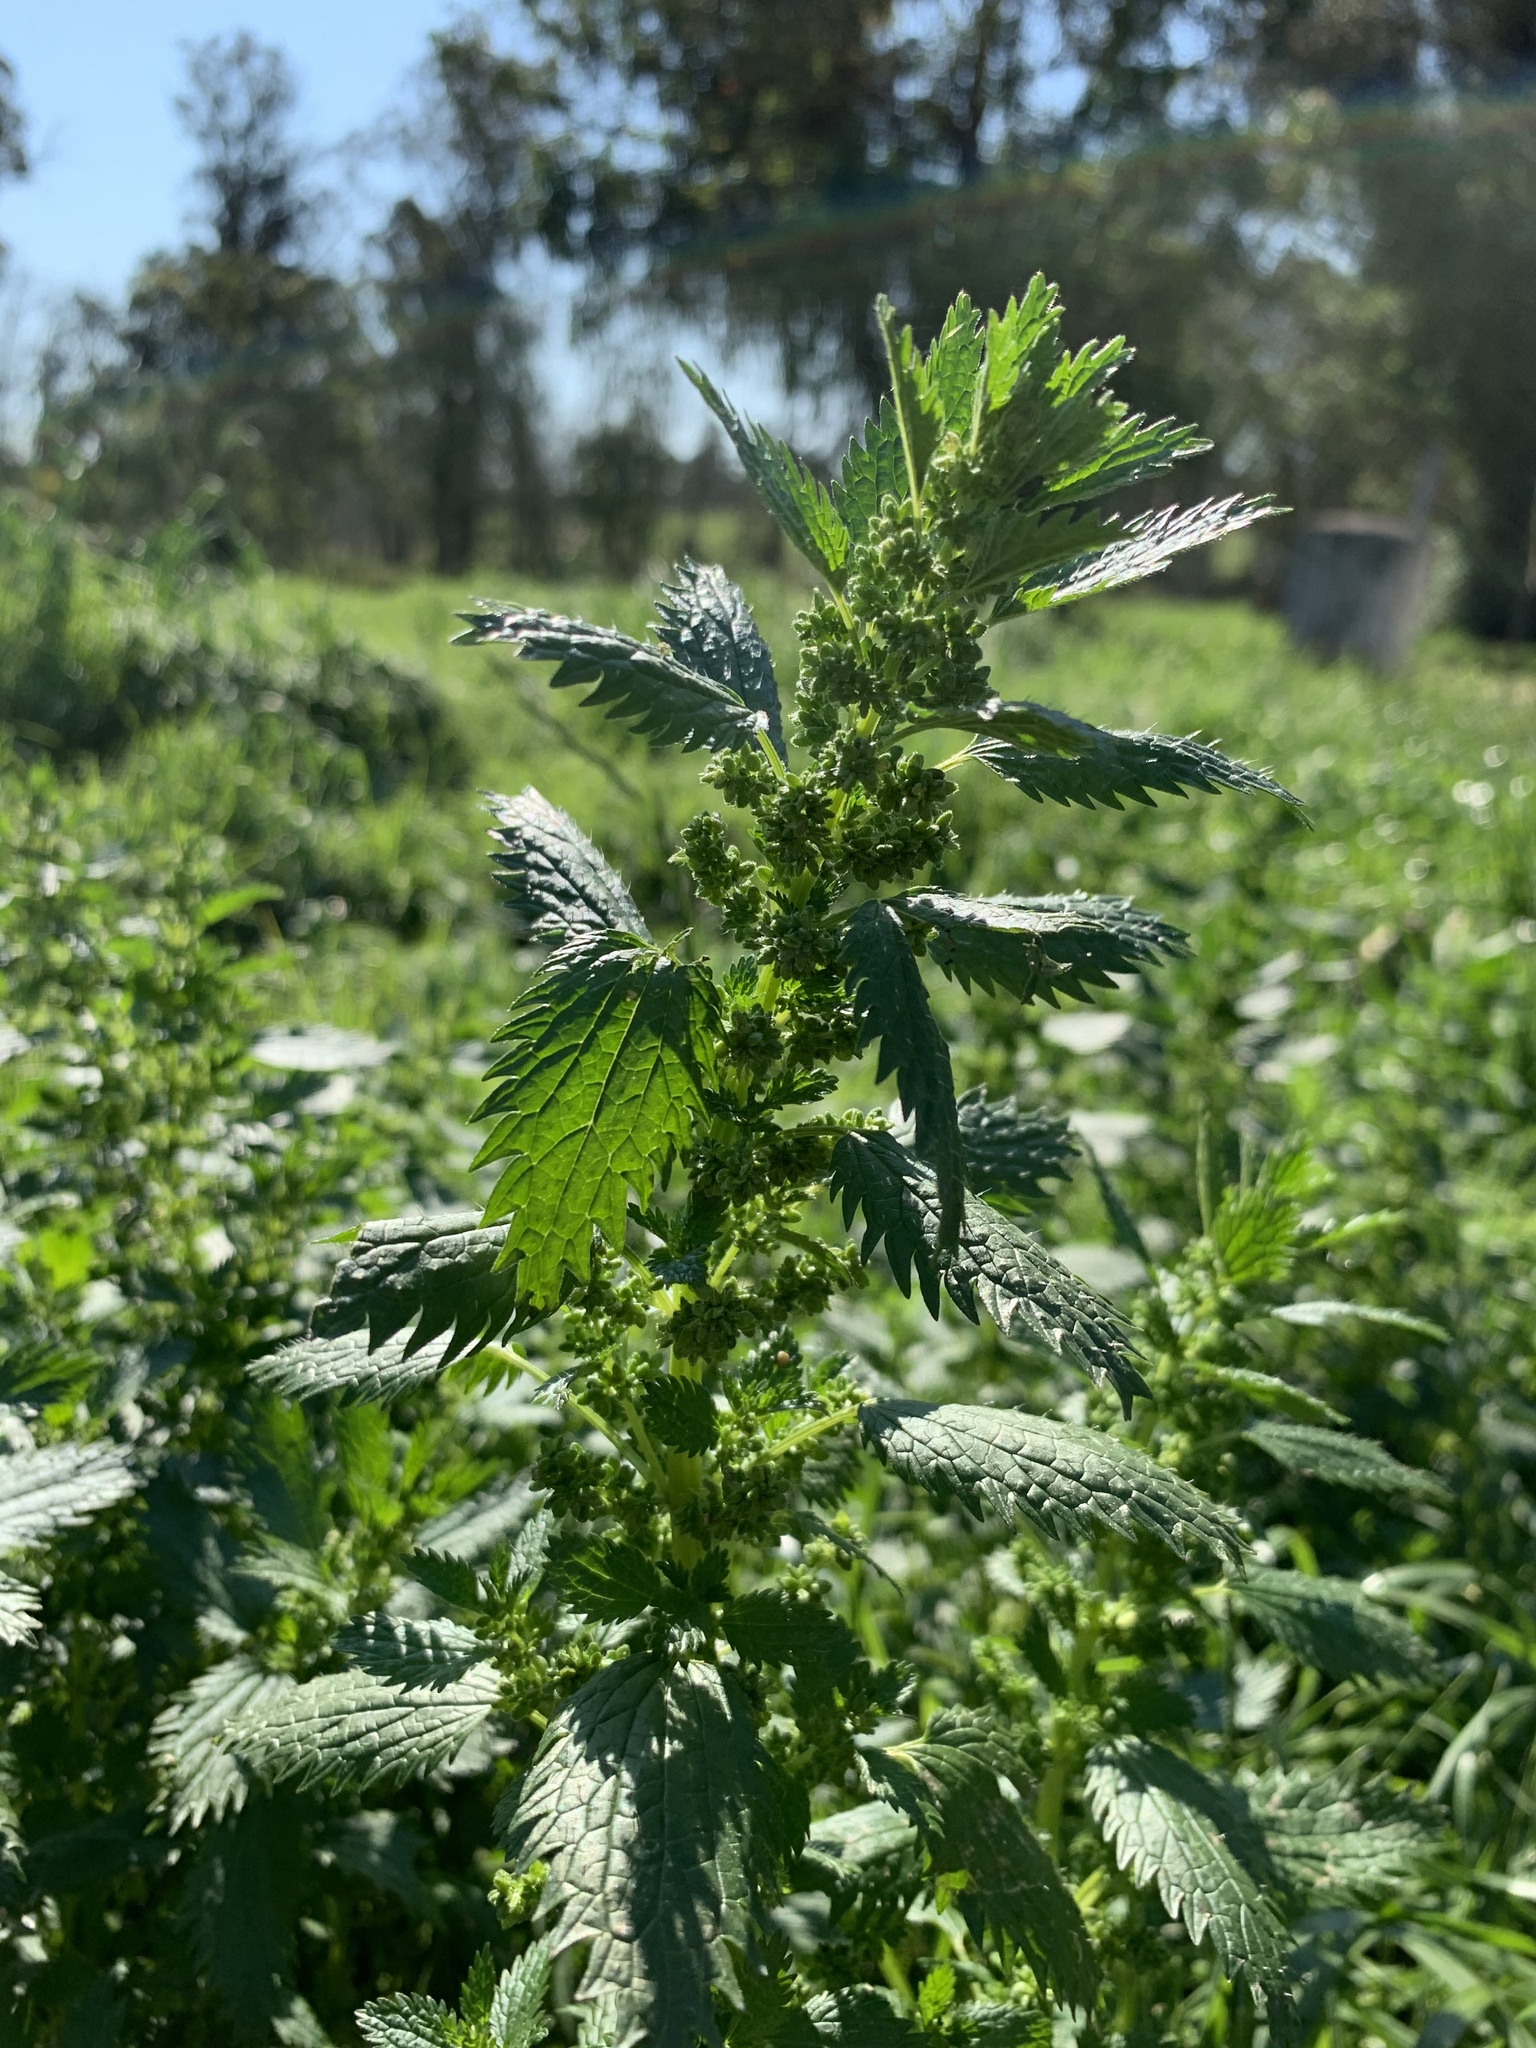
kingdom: Plantae
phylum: Tracheophyta
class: Magnoliopsida
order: Rosales
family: Urticaceae
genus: Urtica
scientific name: Urtica urens
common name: Dwarf nettle
